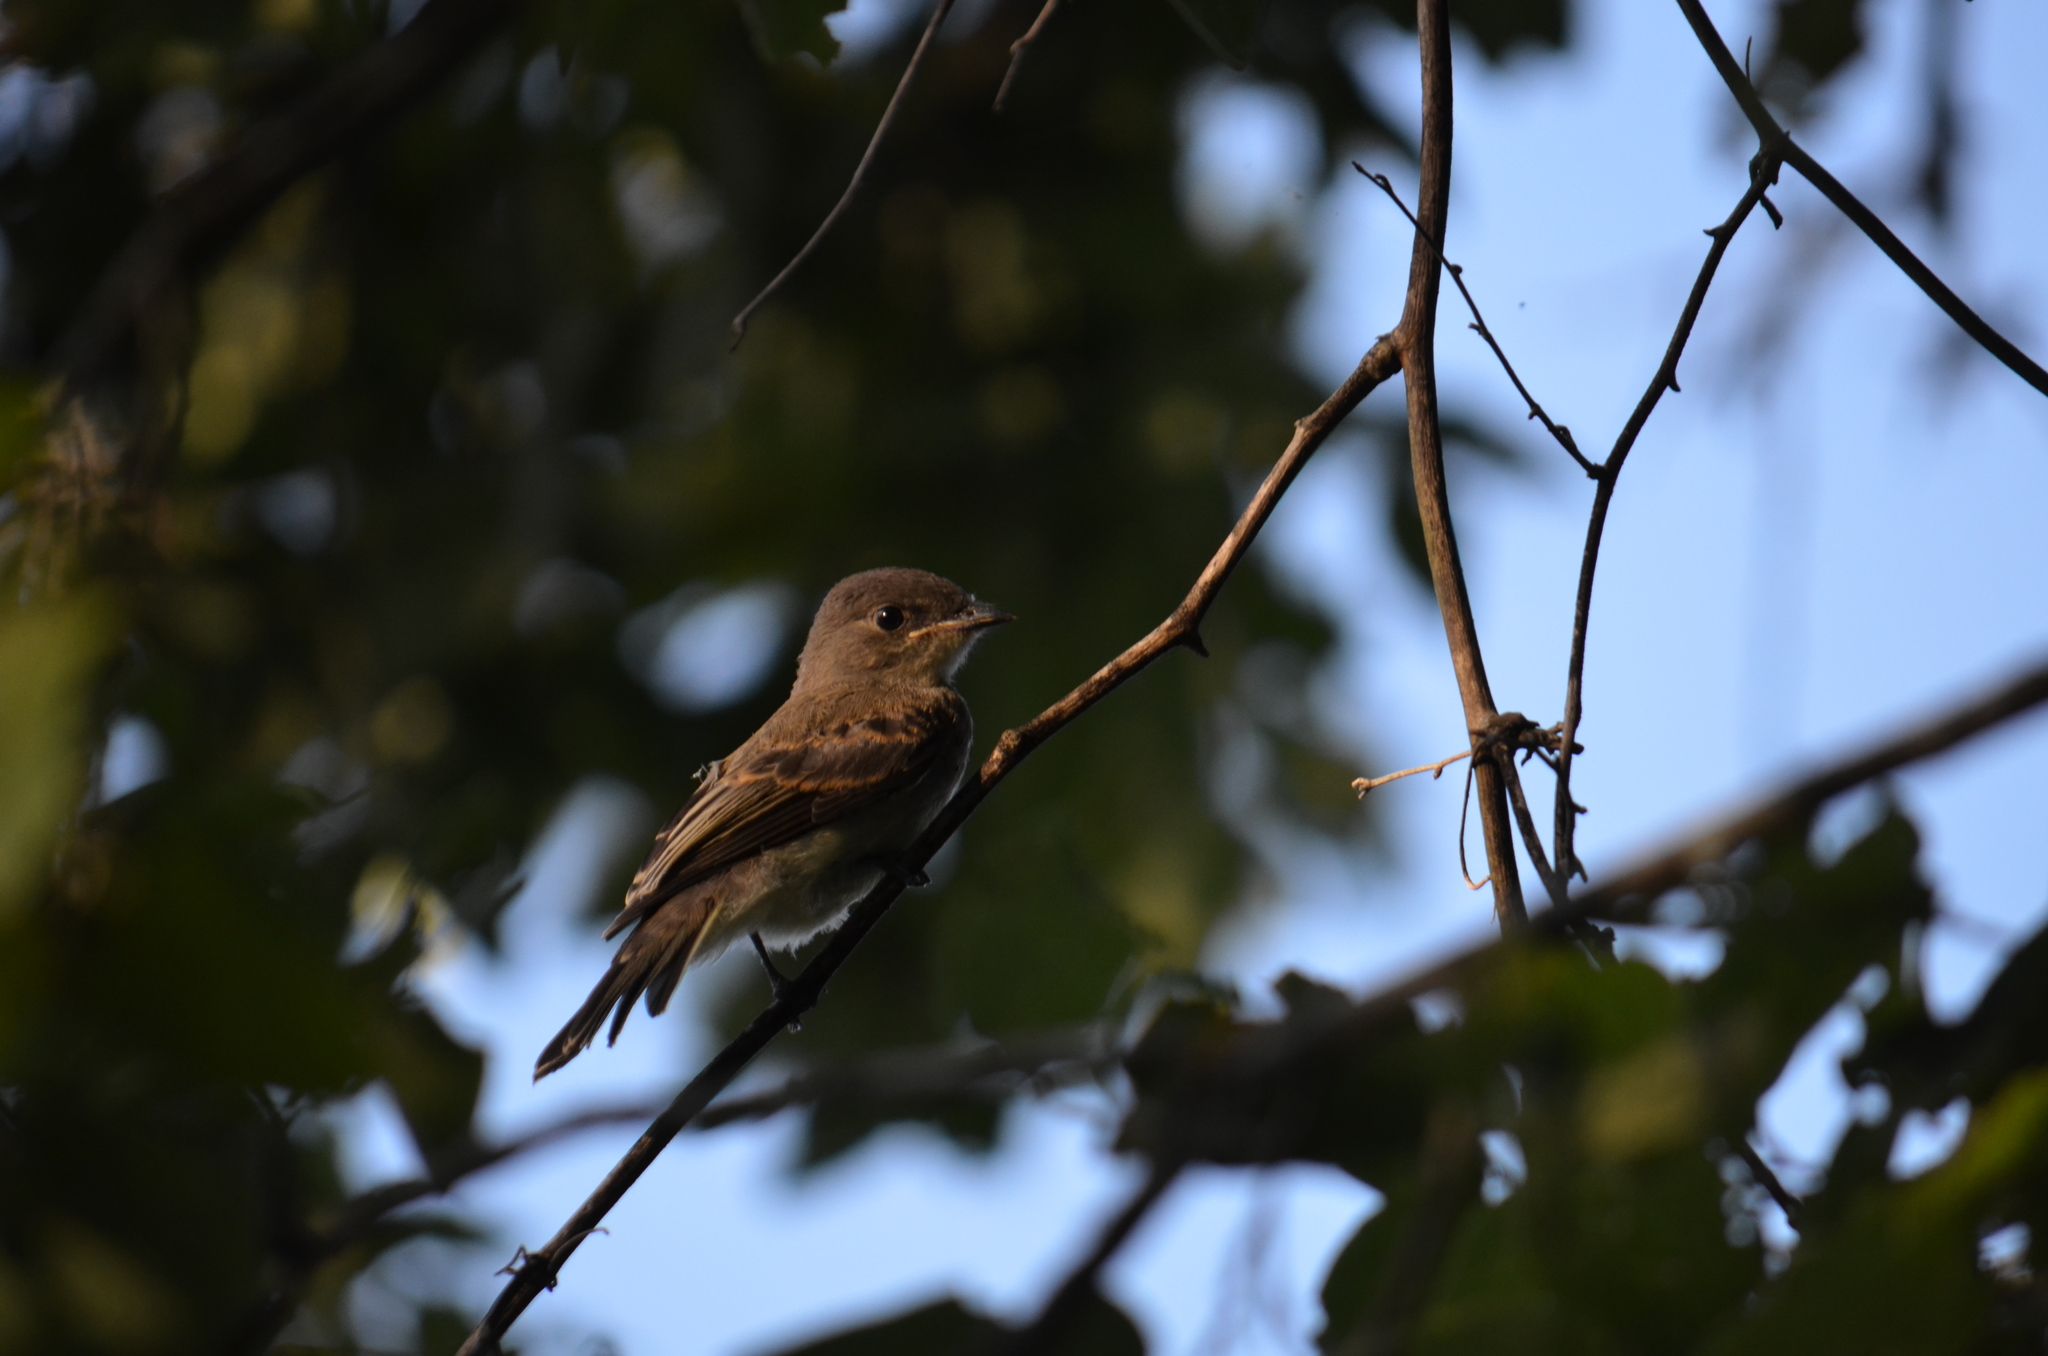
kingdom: Animalia
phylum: Chordata
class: Aves
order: Passeriformes
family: Tyrannidae
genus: Sayornis
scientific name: Sayornis phoebe
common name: Eastern phoebe
